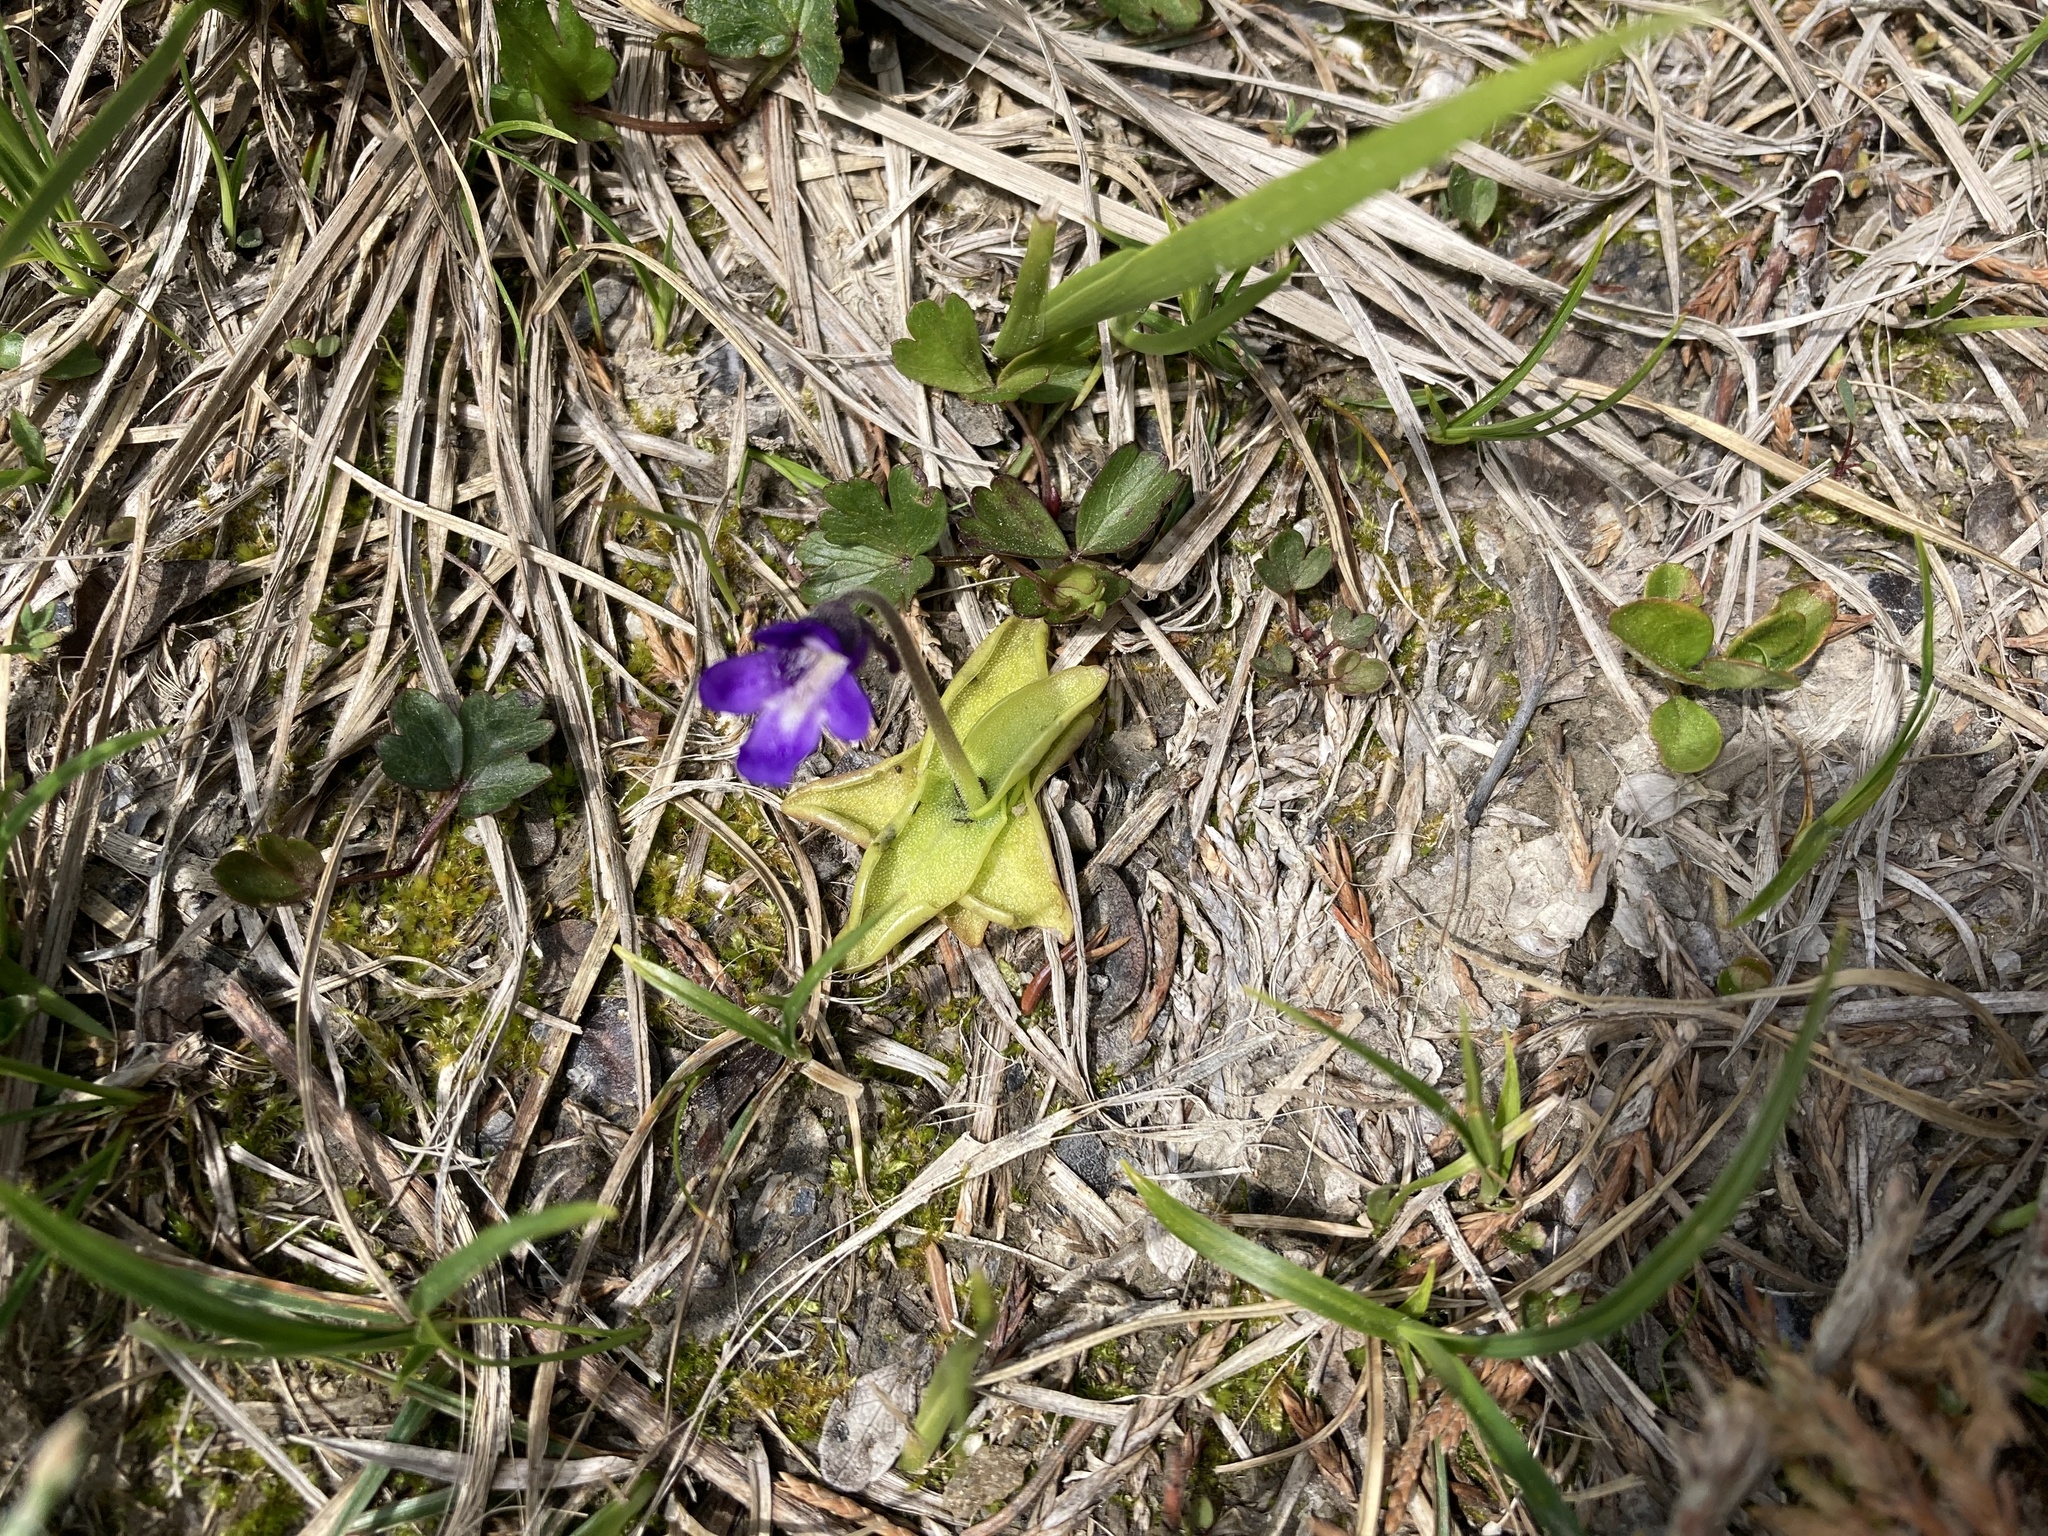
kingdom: Plantae
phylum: Tracheophyta
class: Magnoliopsida
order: Lamiales
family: Lentibulariaceae
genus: Pinguicula
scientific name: Pinguicula vulgaris
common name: Common butterwort
